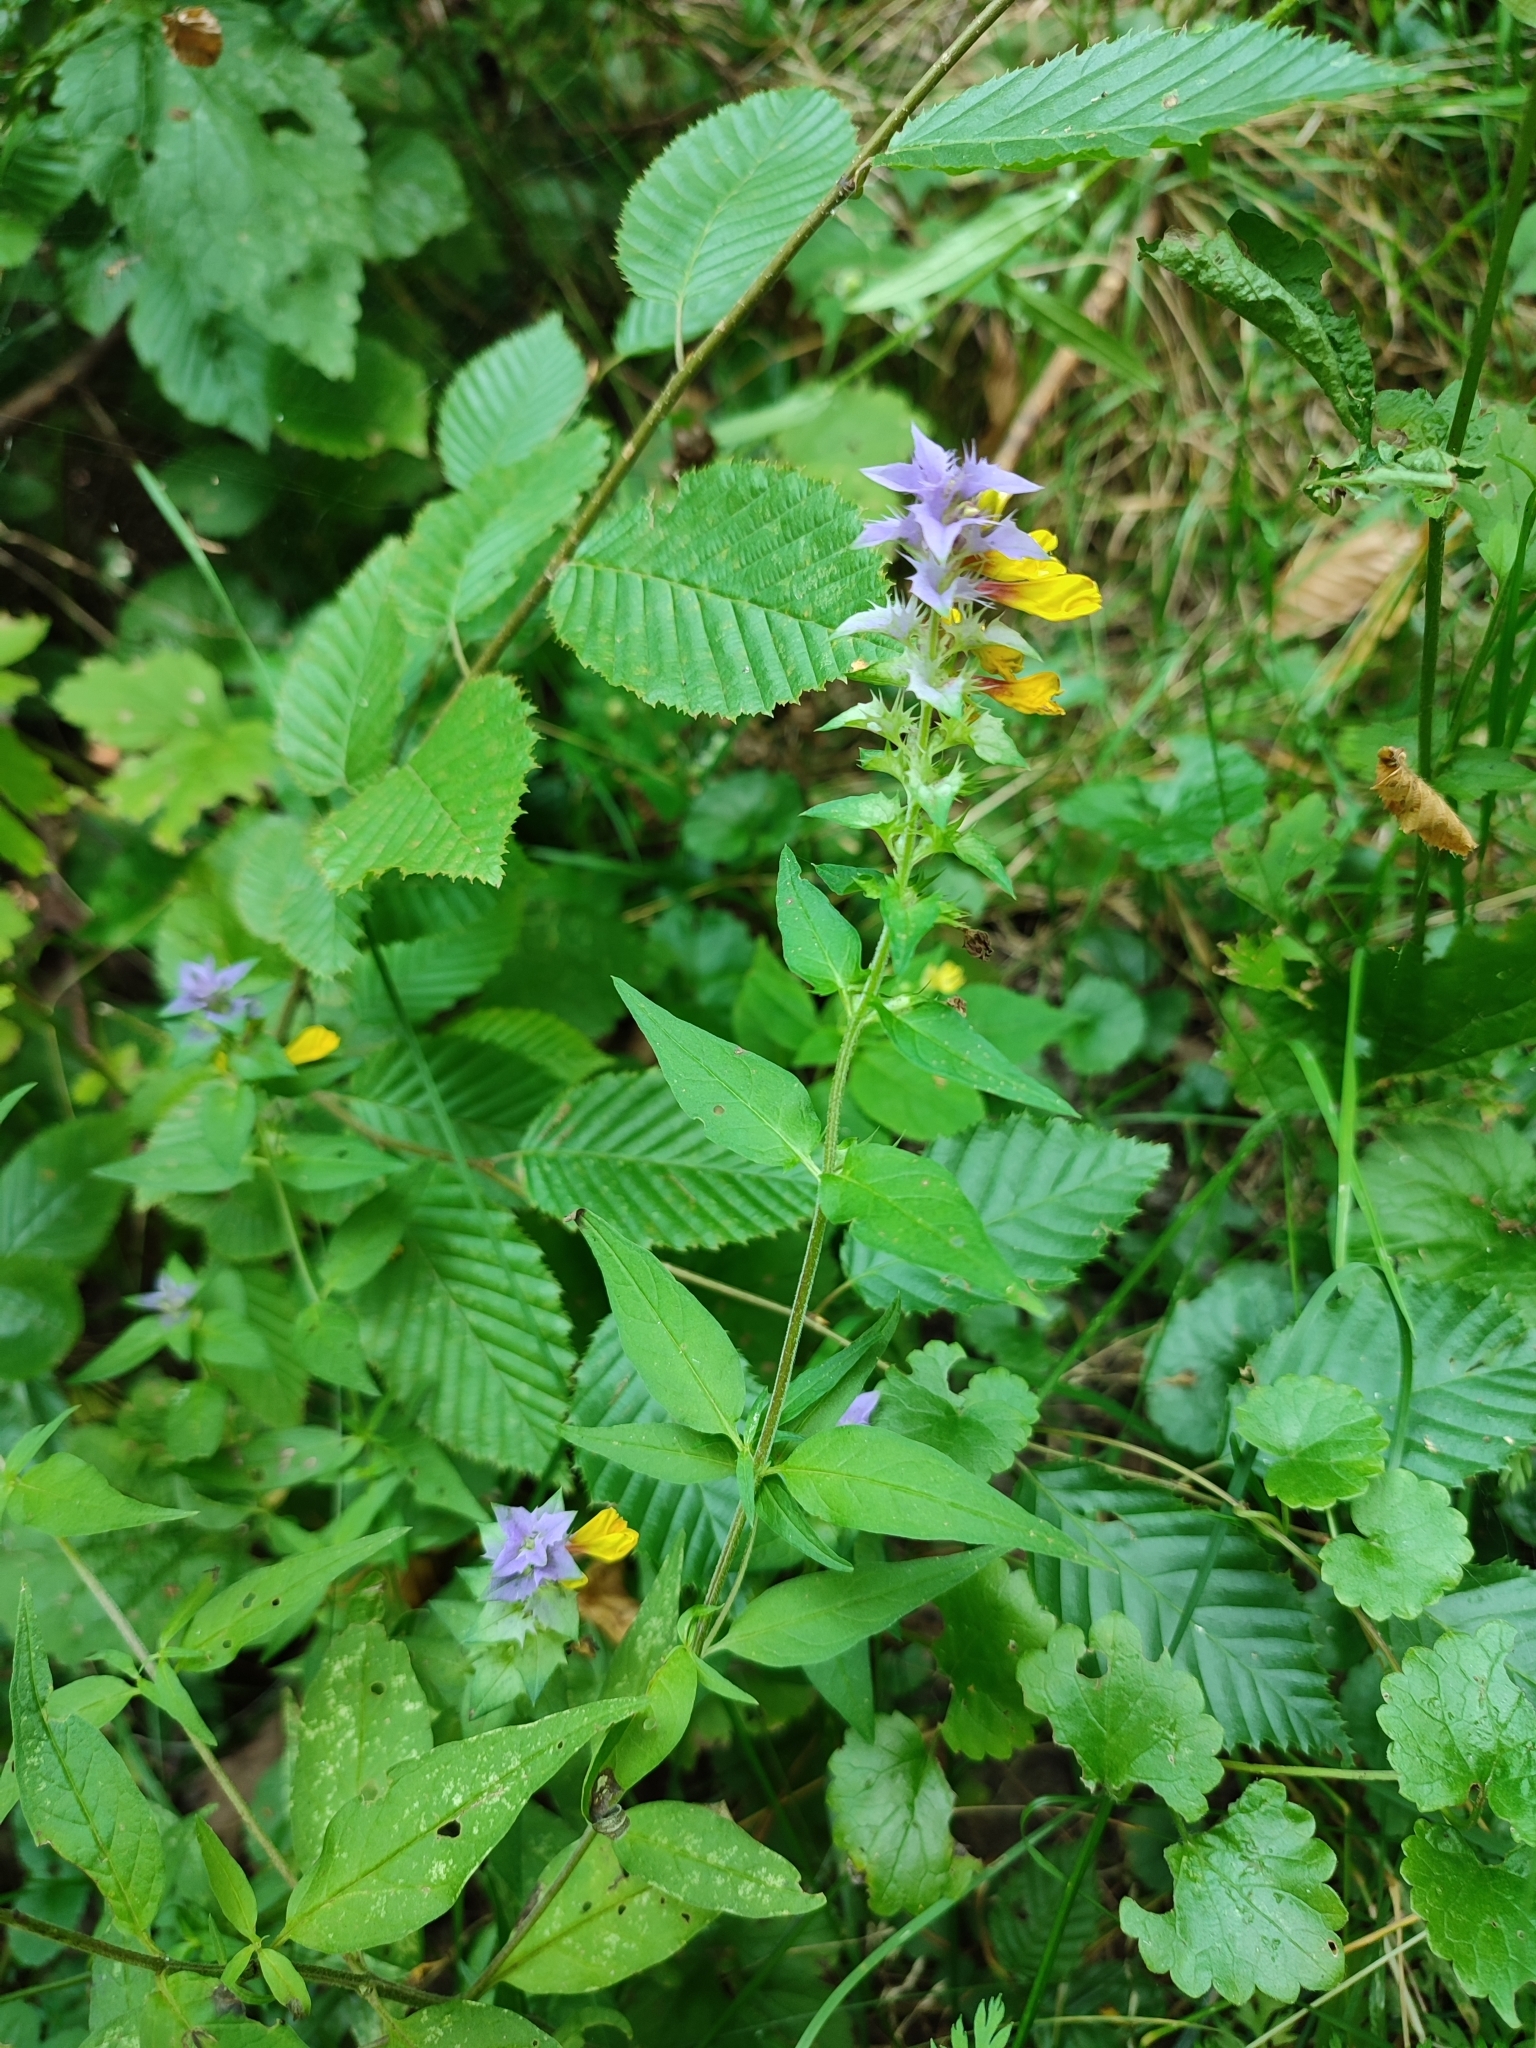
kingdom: Plantae
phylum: Tracheophyta
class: Magnoliopsida
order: Lamiales
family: Orobanchaceae
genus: Melampyrum
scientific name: Melampyrum nemorosum
